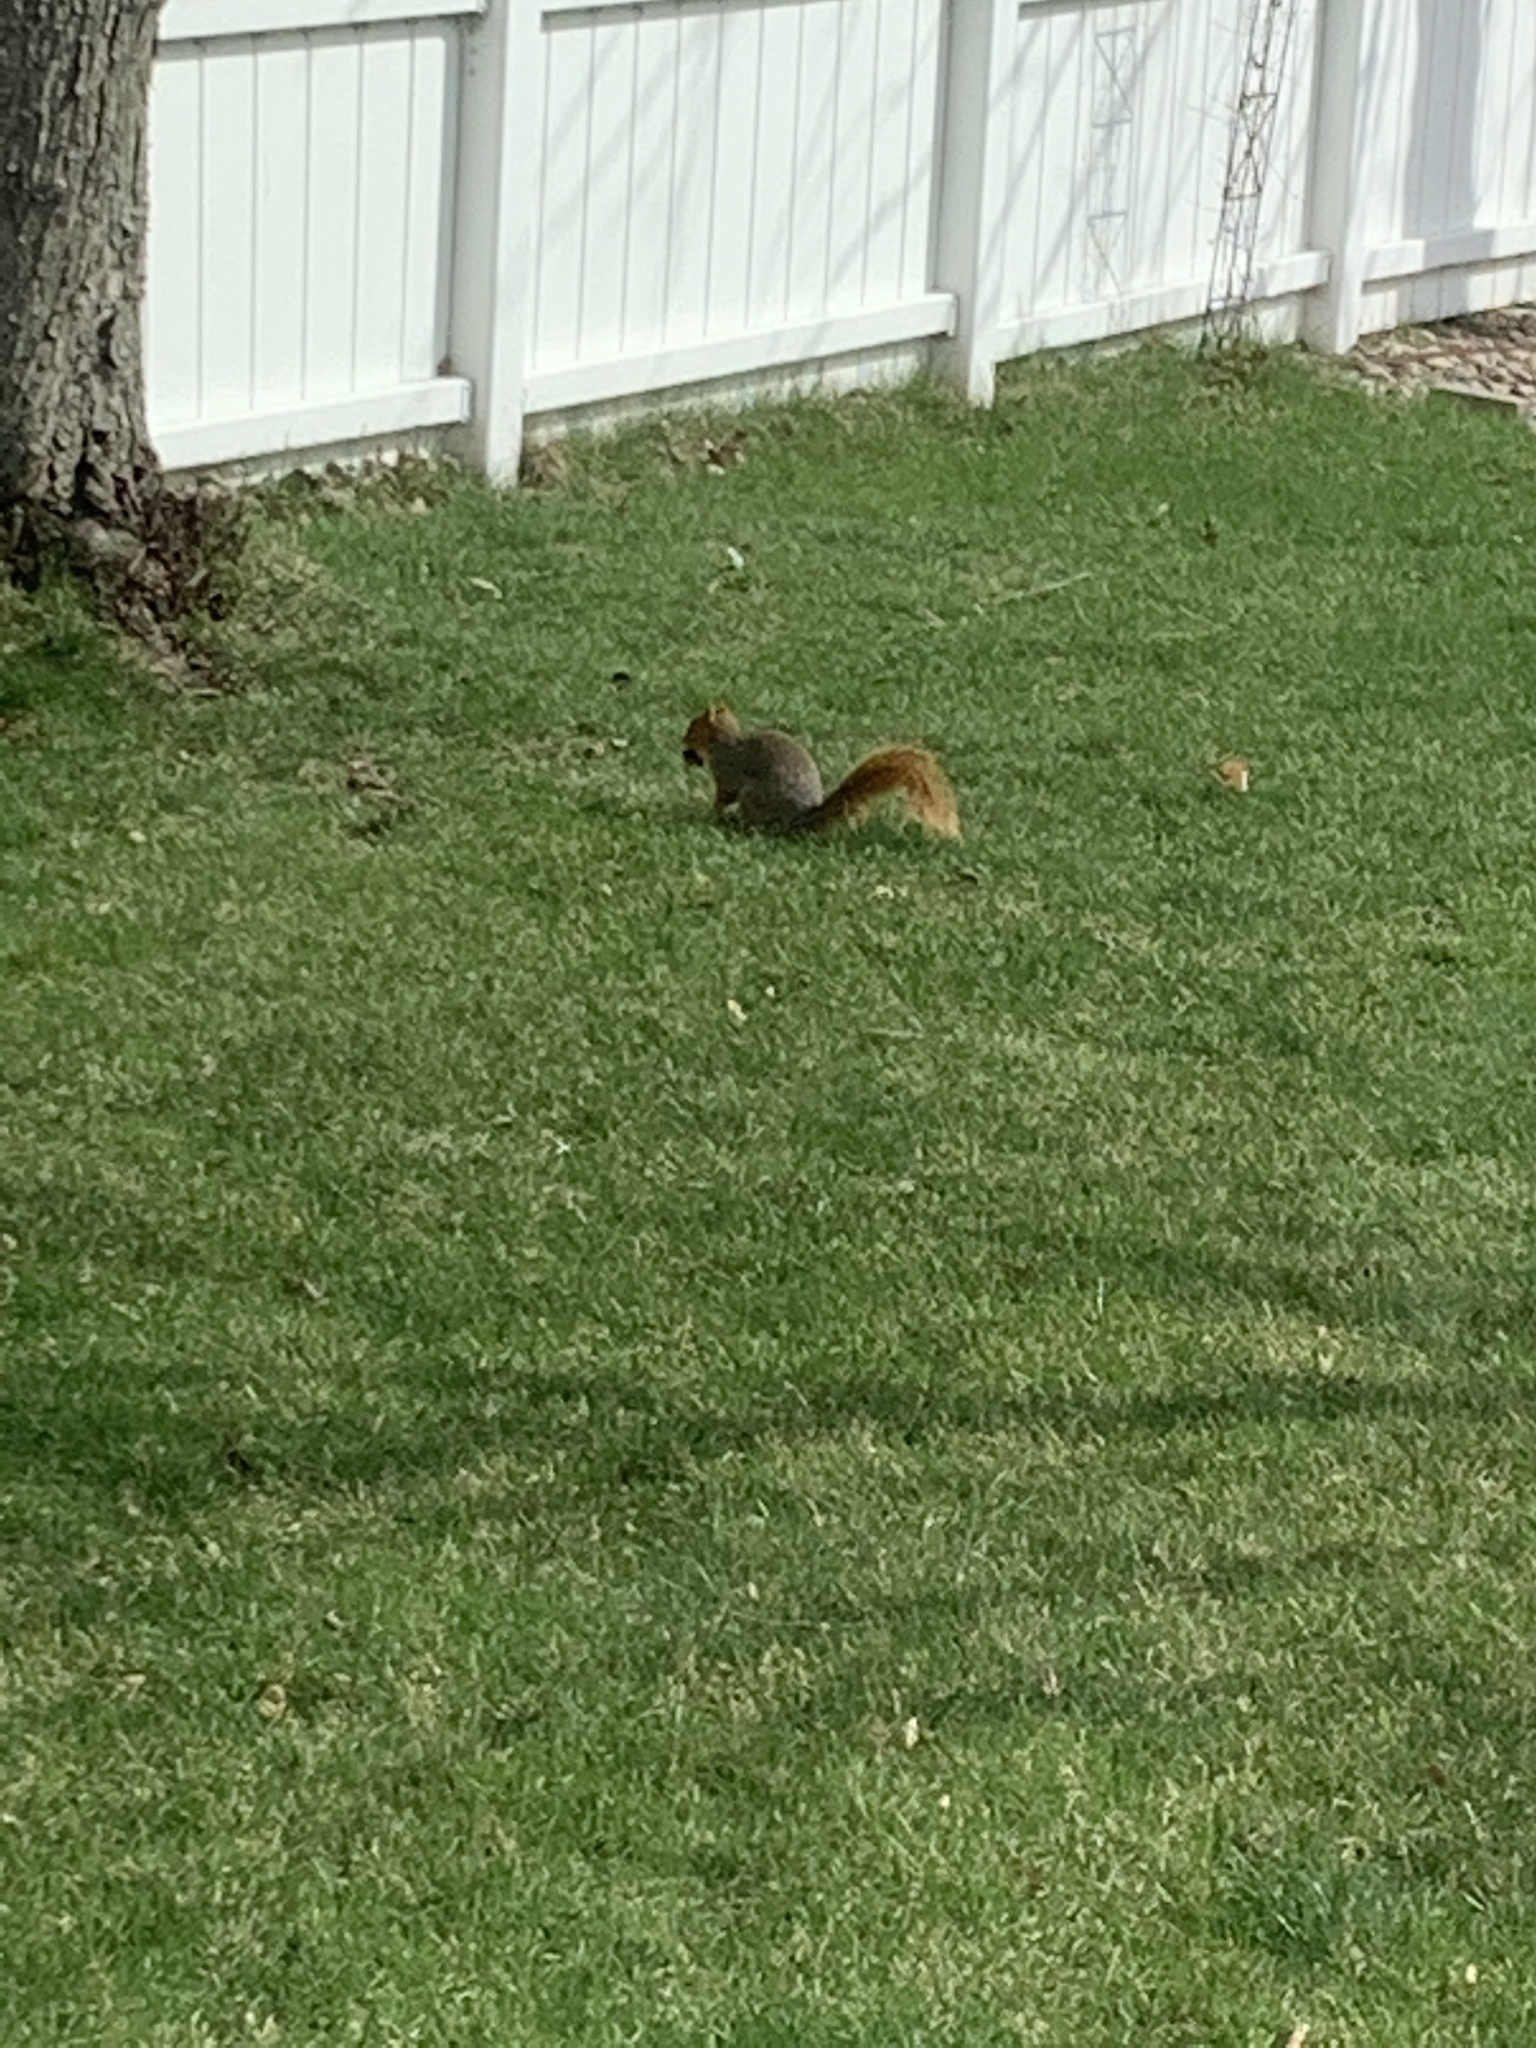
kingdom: Animalia
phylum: Chordata
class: Mammalia
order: Rodentia
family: Sciuridae
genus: Sciurus
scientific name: Sciurus niger
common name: Fox squirrel
